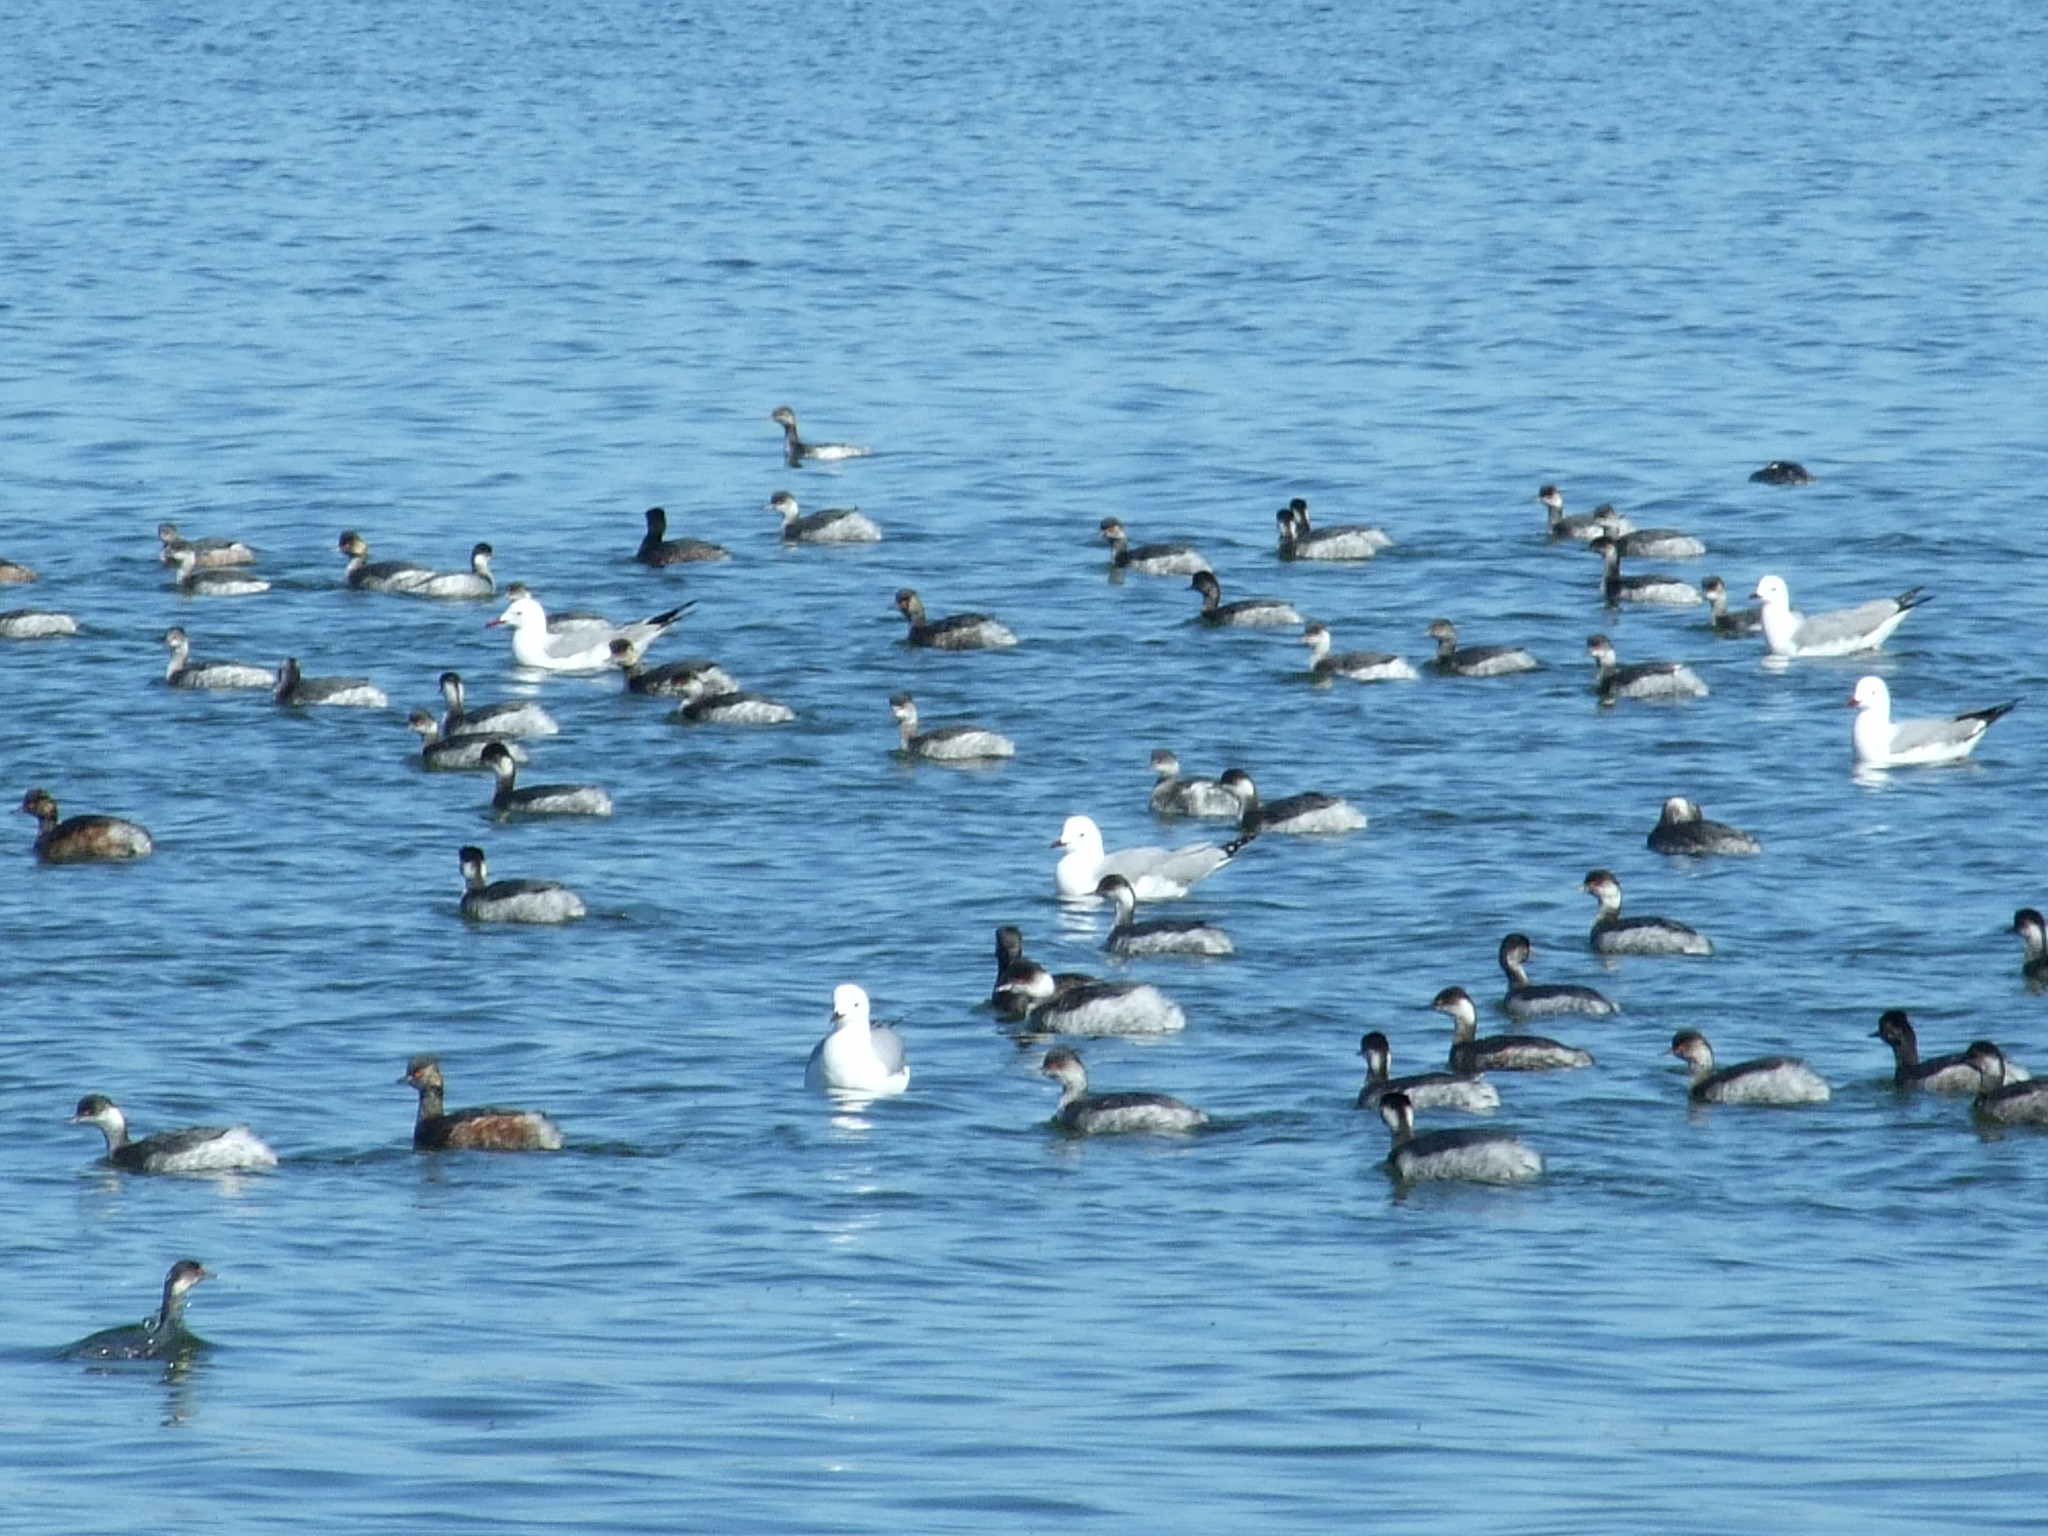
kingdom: Animalia
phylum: Chordata
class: Aves
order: Podicipediformes
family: Podicipedidae
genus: Podiceps
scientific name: Podiceps nigricollis
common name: Black-necked grebe
